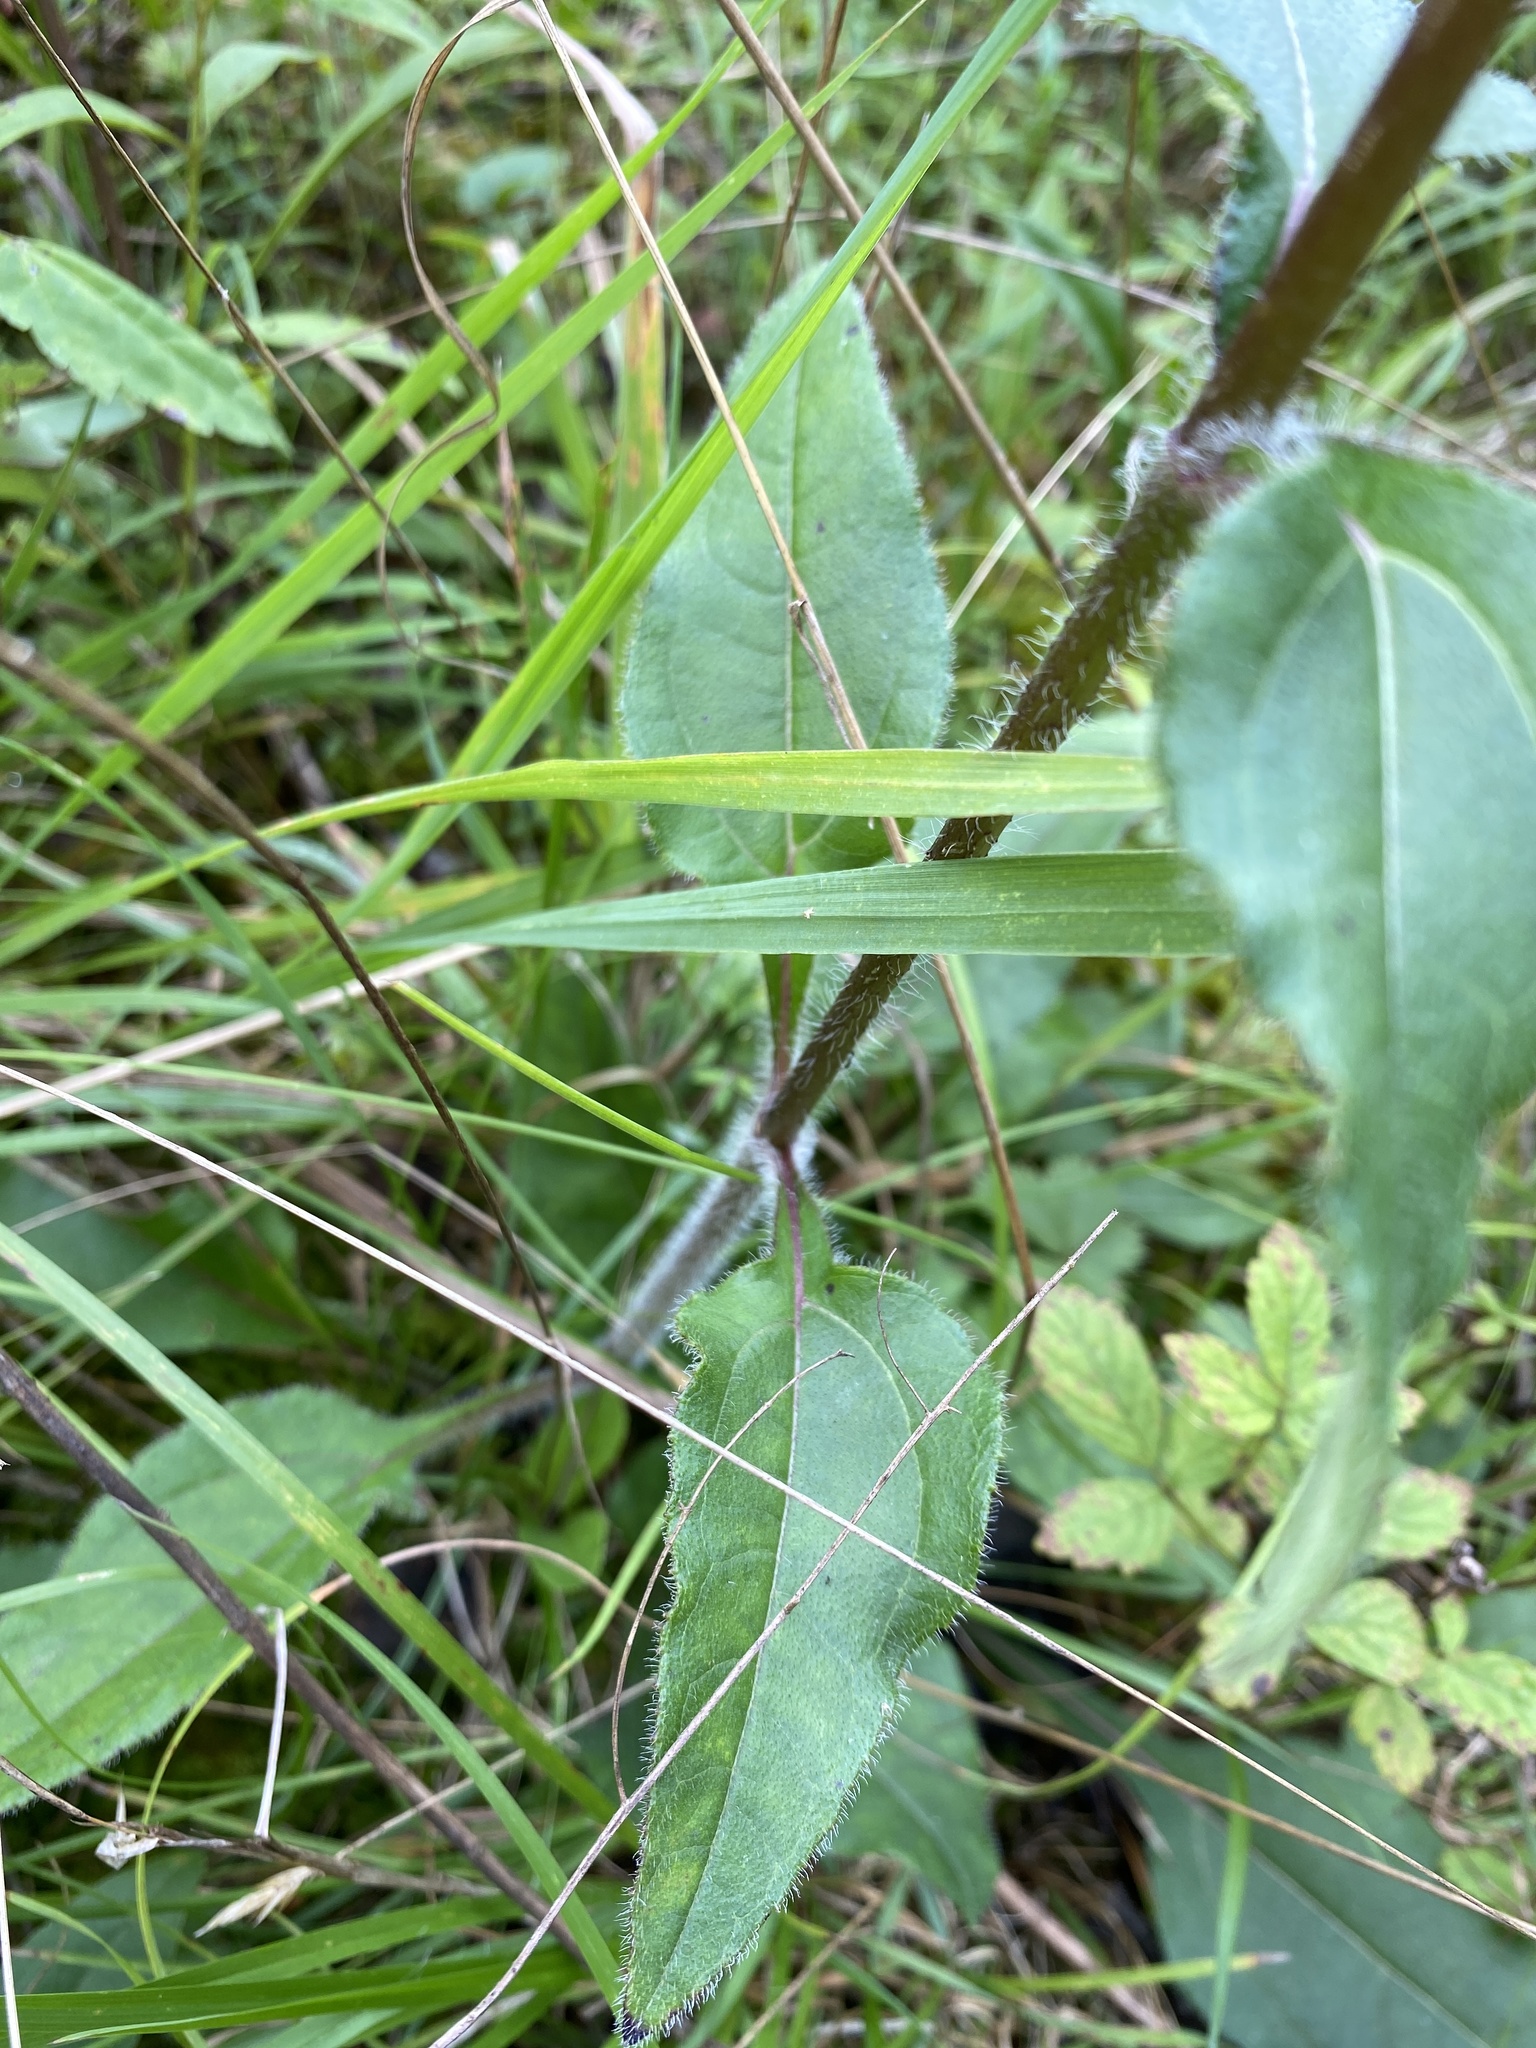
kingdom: Plantae
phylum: Tracheophyta
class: Magnoliopsida
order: Asterales
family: Asteraceae
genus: Helianthus
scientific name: Helianthus atrorubens
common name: Dark-eyed sunflower
